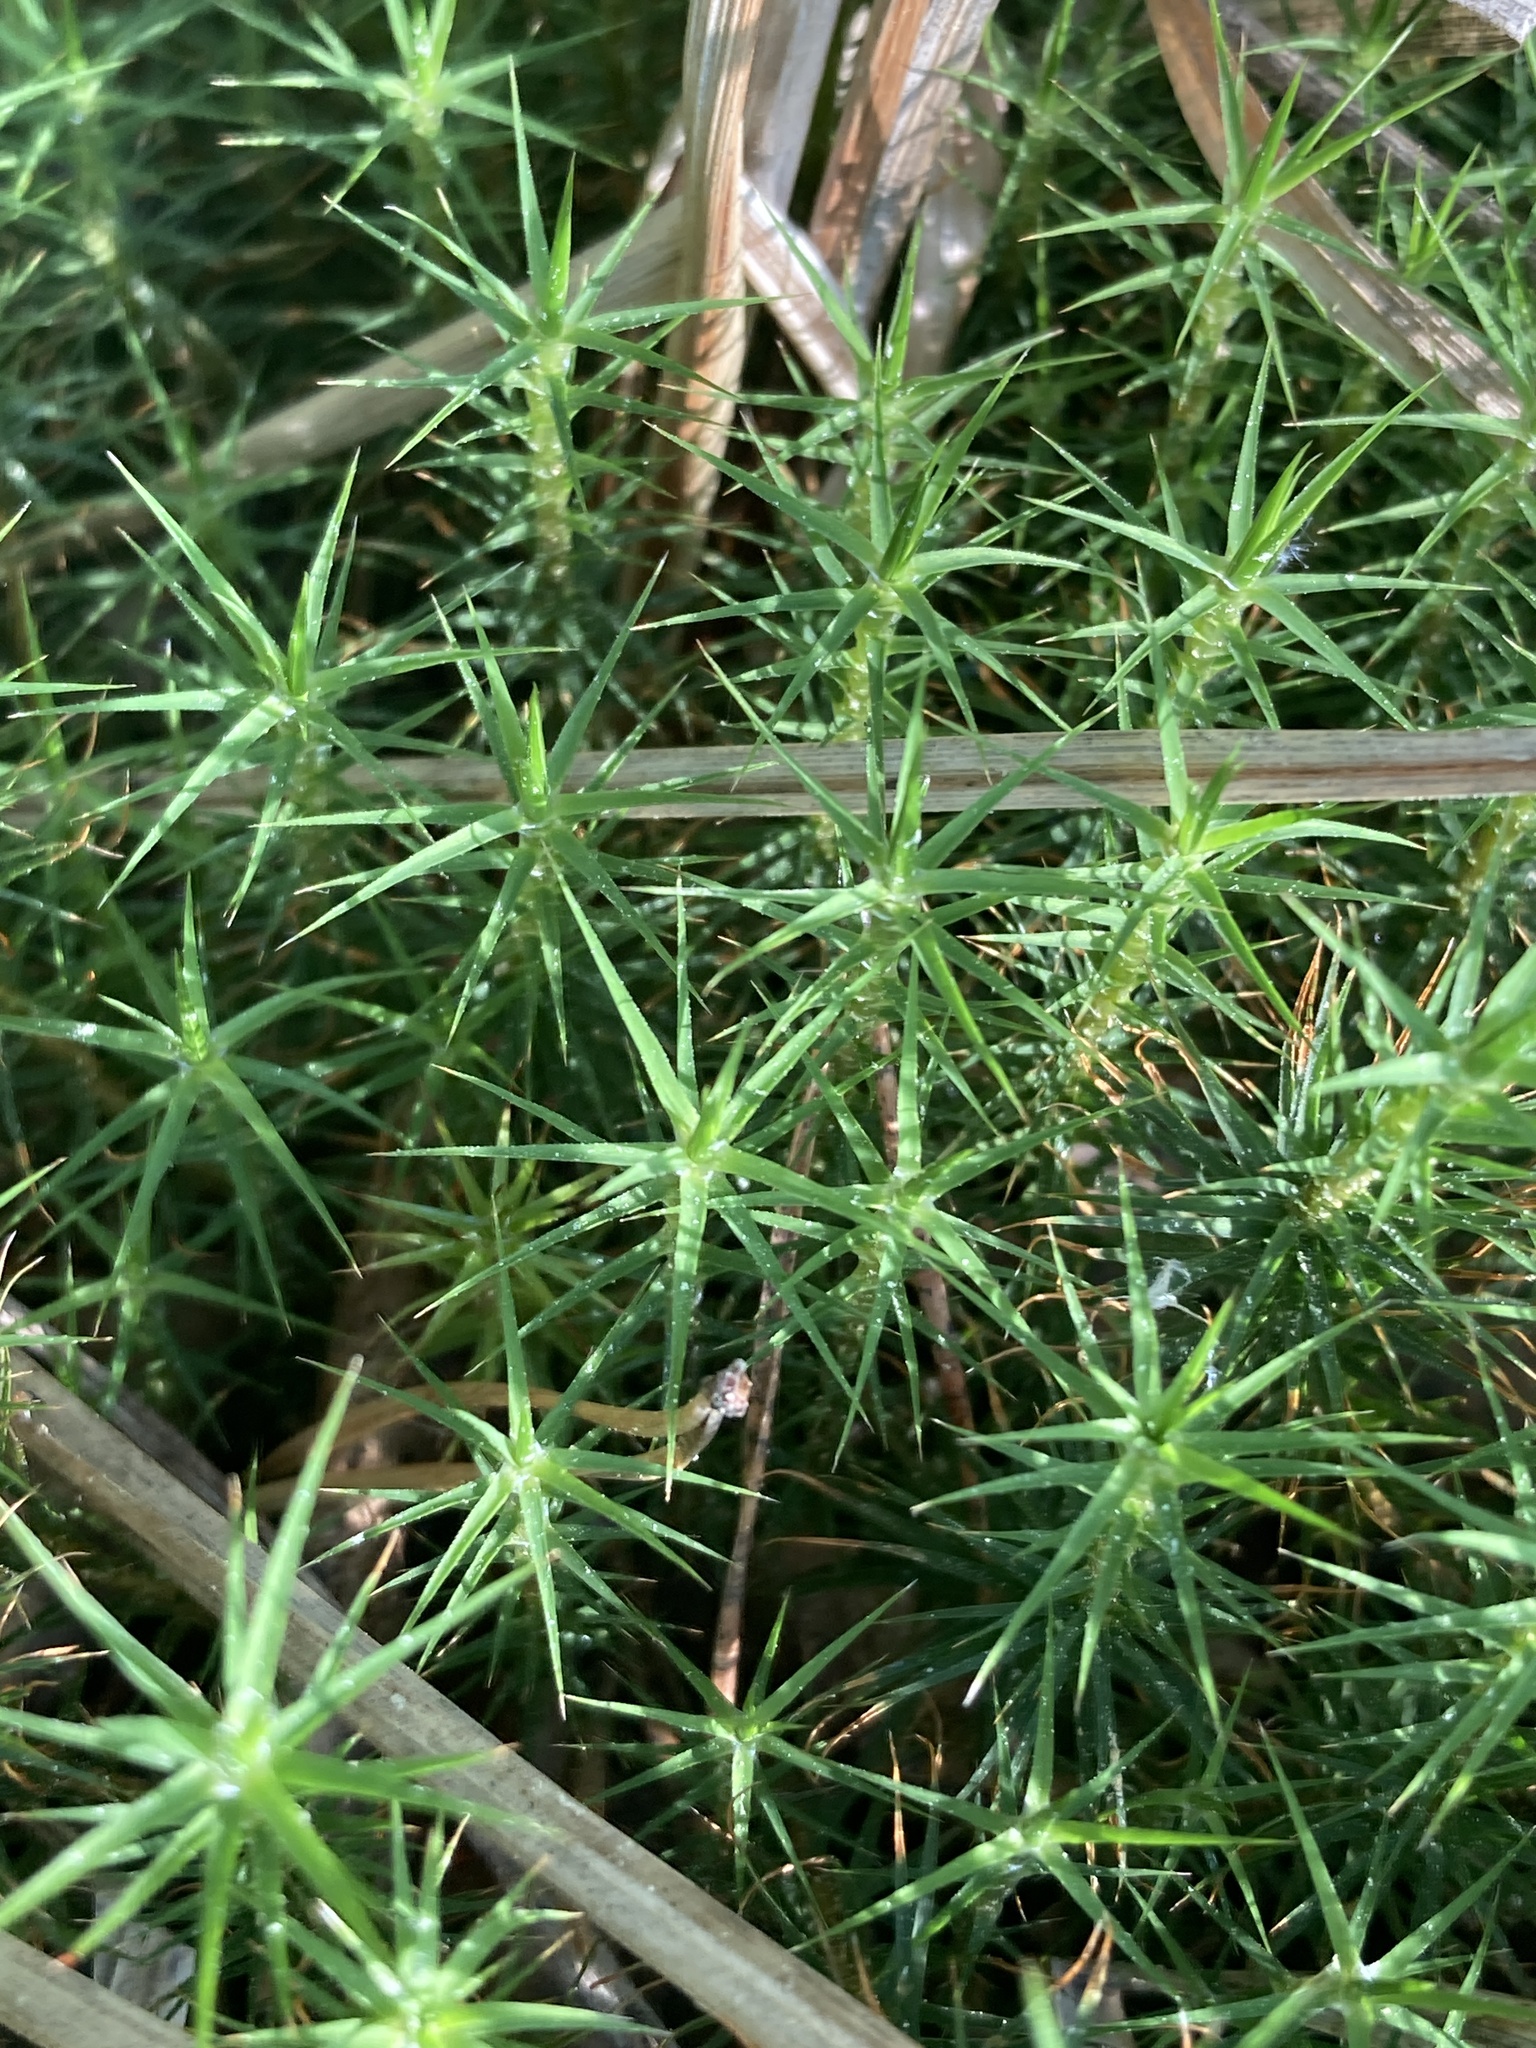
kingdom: Plantae
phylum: Bryophyta
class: Polytrichopsida
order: Polytrichales
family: Polytrichaceae
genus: Polytrichum
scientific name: Polytrichum commune
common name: Common haircap
